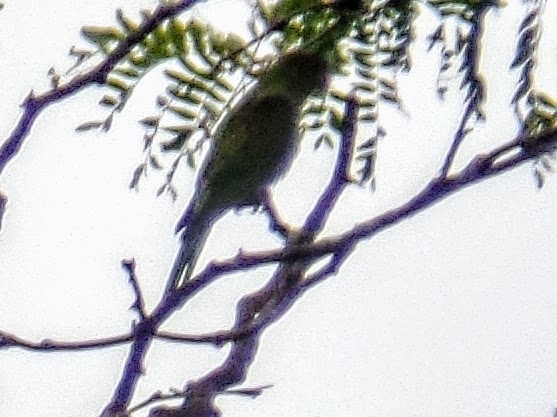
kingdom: Animalia
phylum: Chordata
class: Aves
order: Psittaciformes
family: Psittacidae
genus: Psittacula
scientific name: Psittacula krameri
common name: Rose-ringed parakeet
